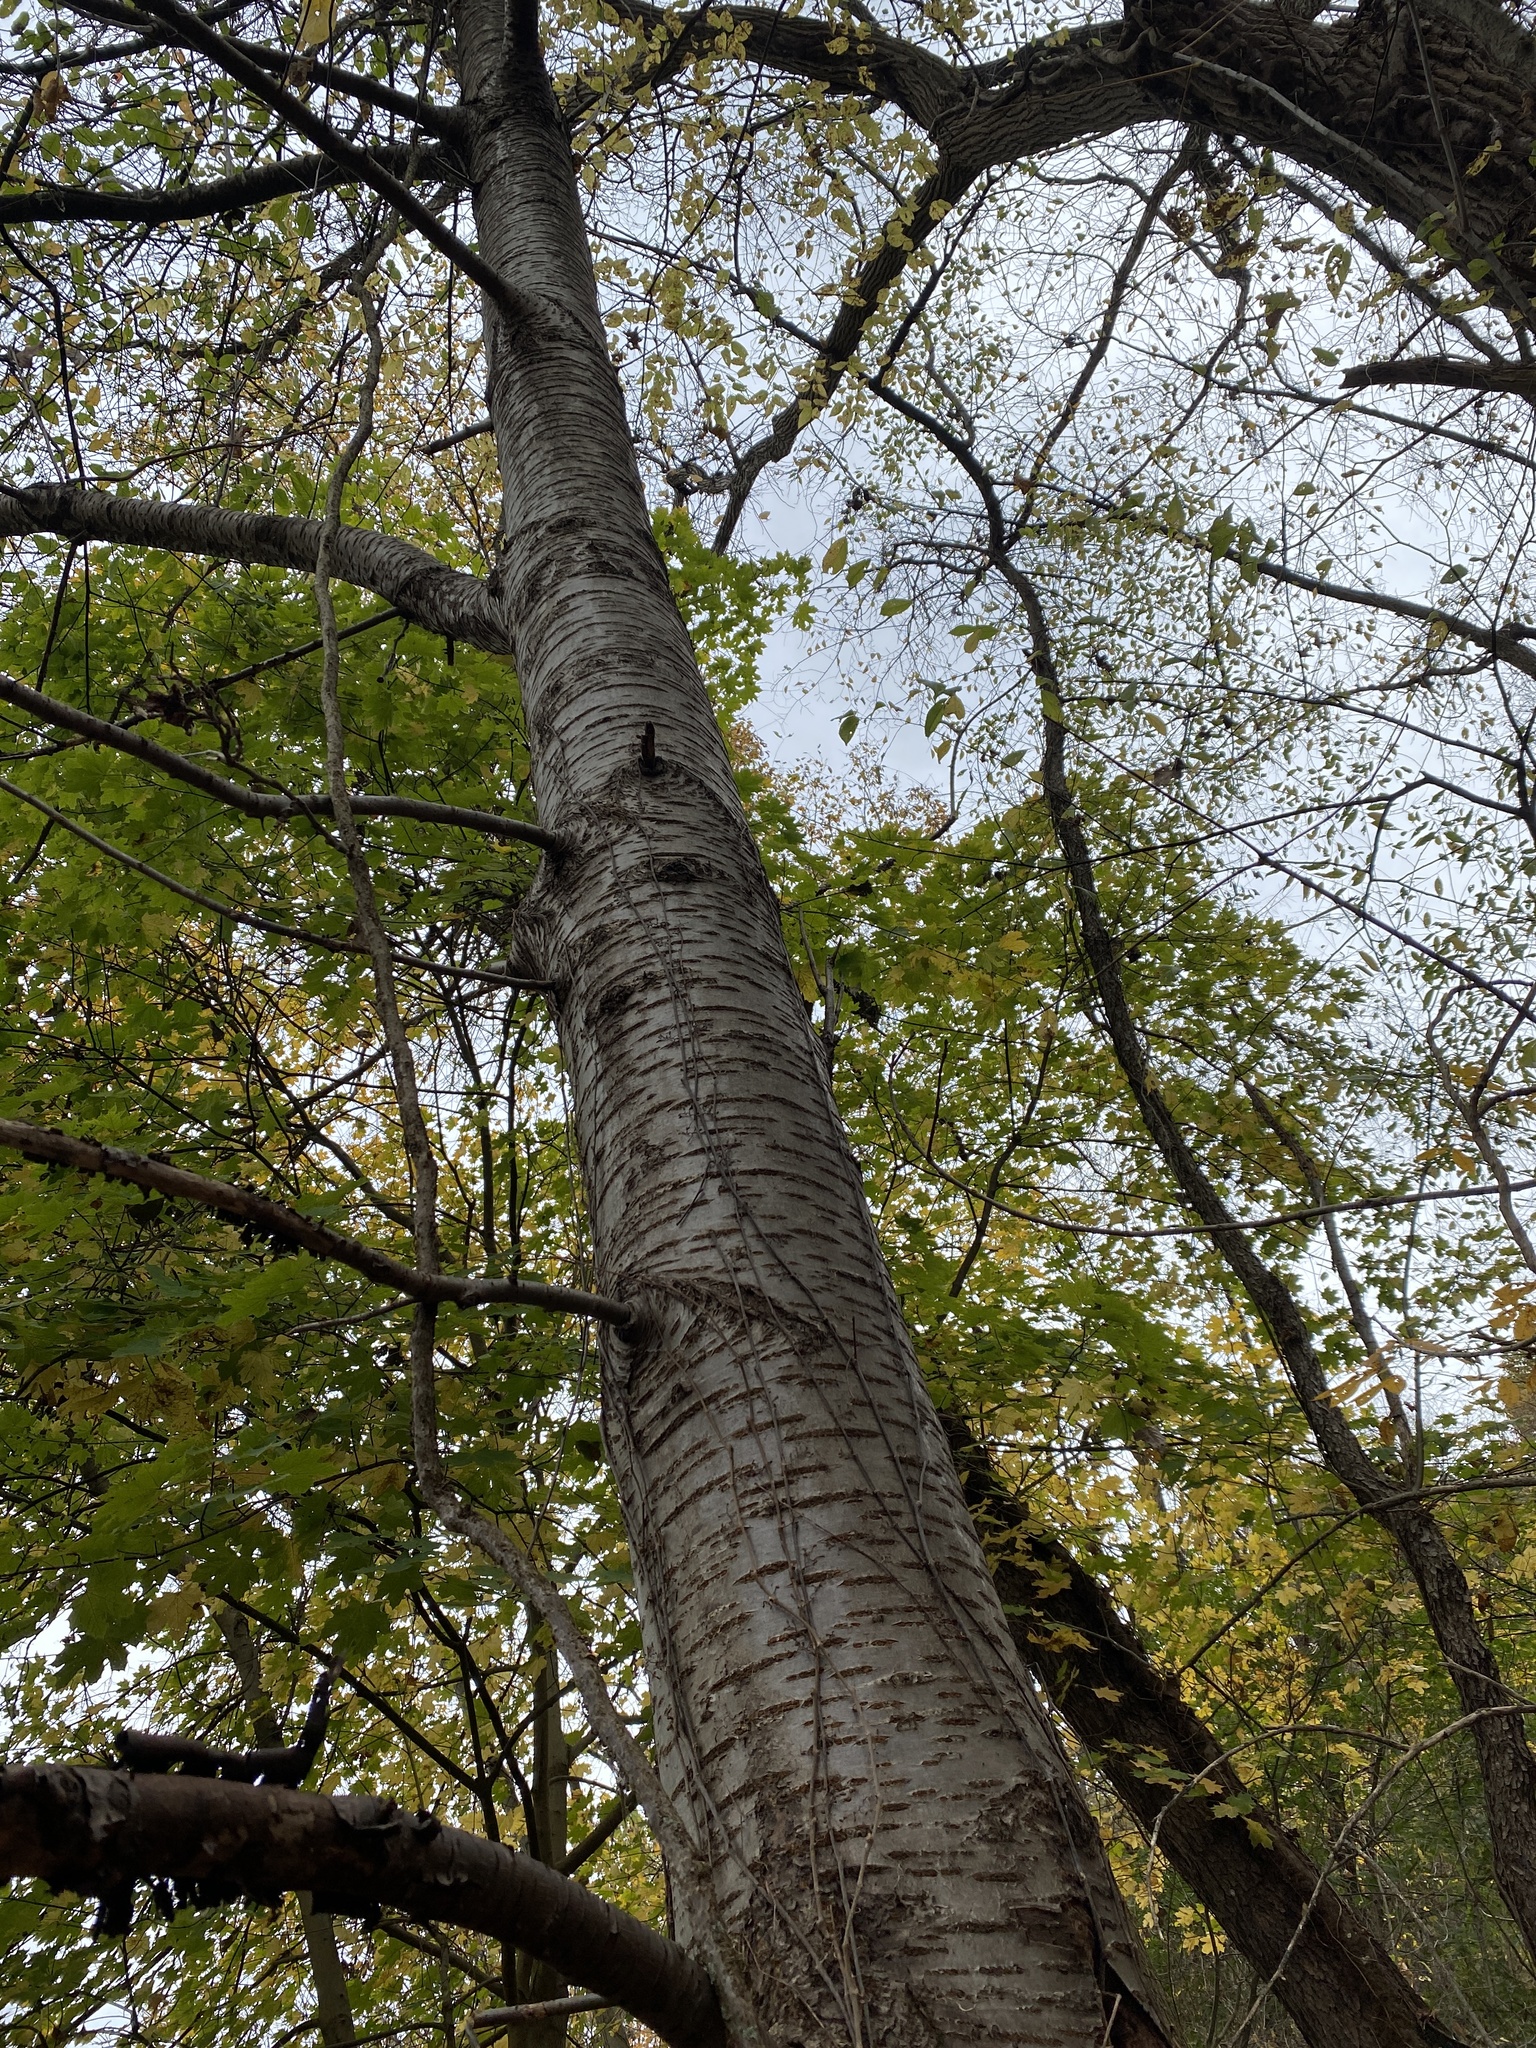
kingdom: Plantae
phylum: Tracheophyta
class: Magnoliopsida
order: Rosales
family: Rosaceae
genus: Prunus
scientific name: Prunus avium
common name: Sweet cherry
